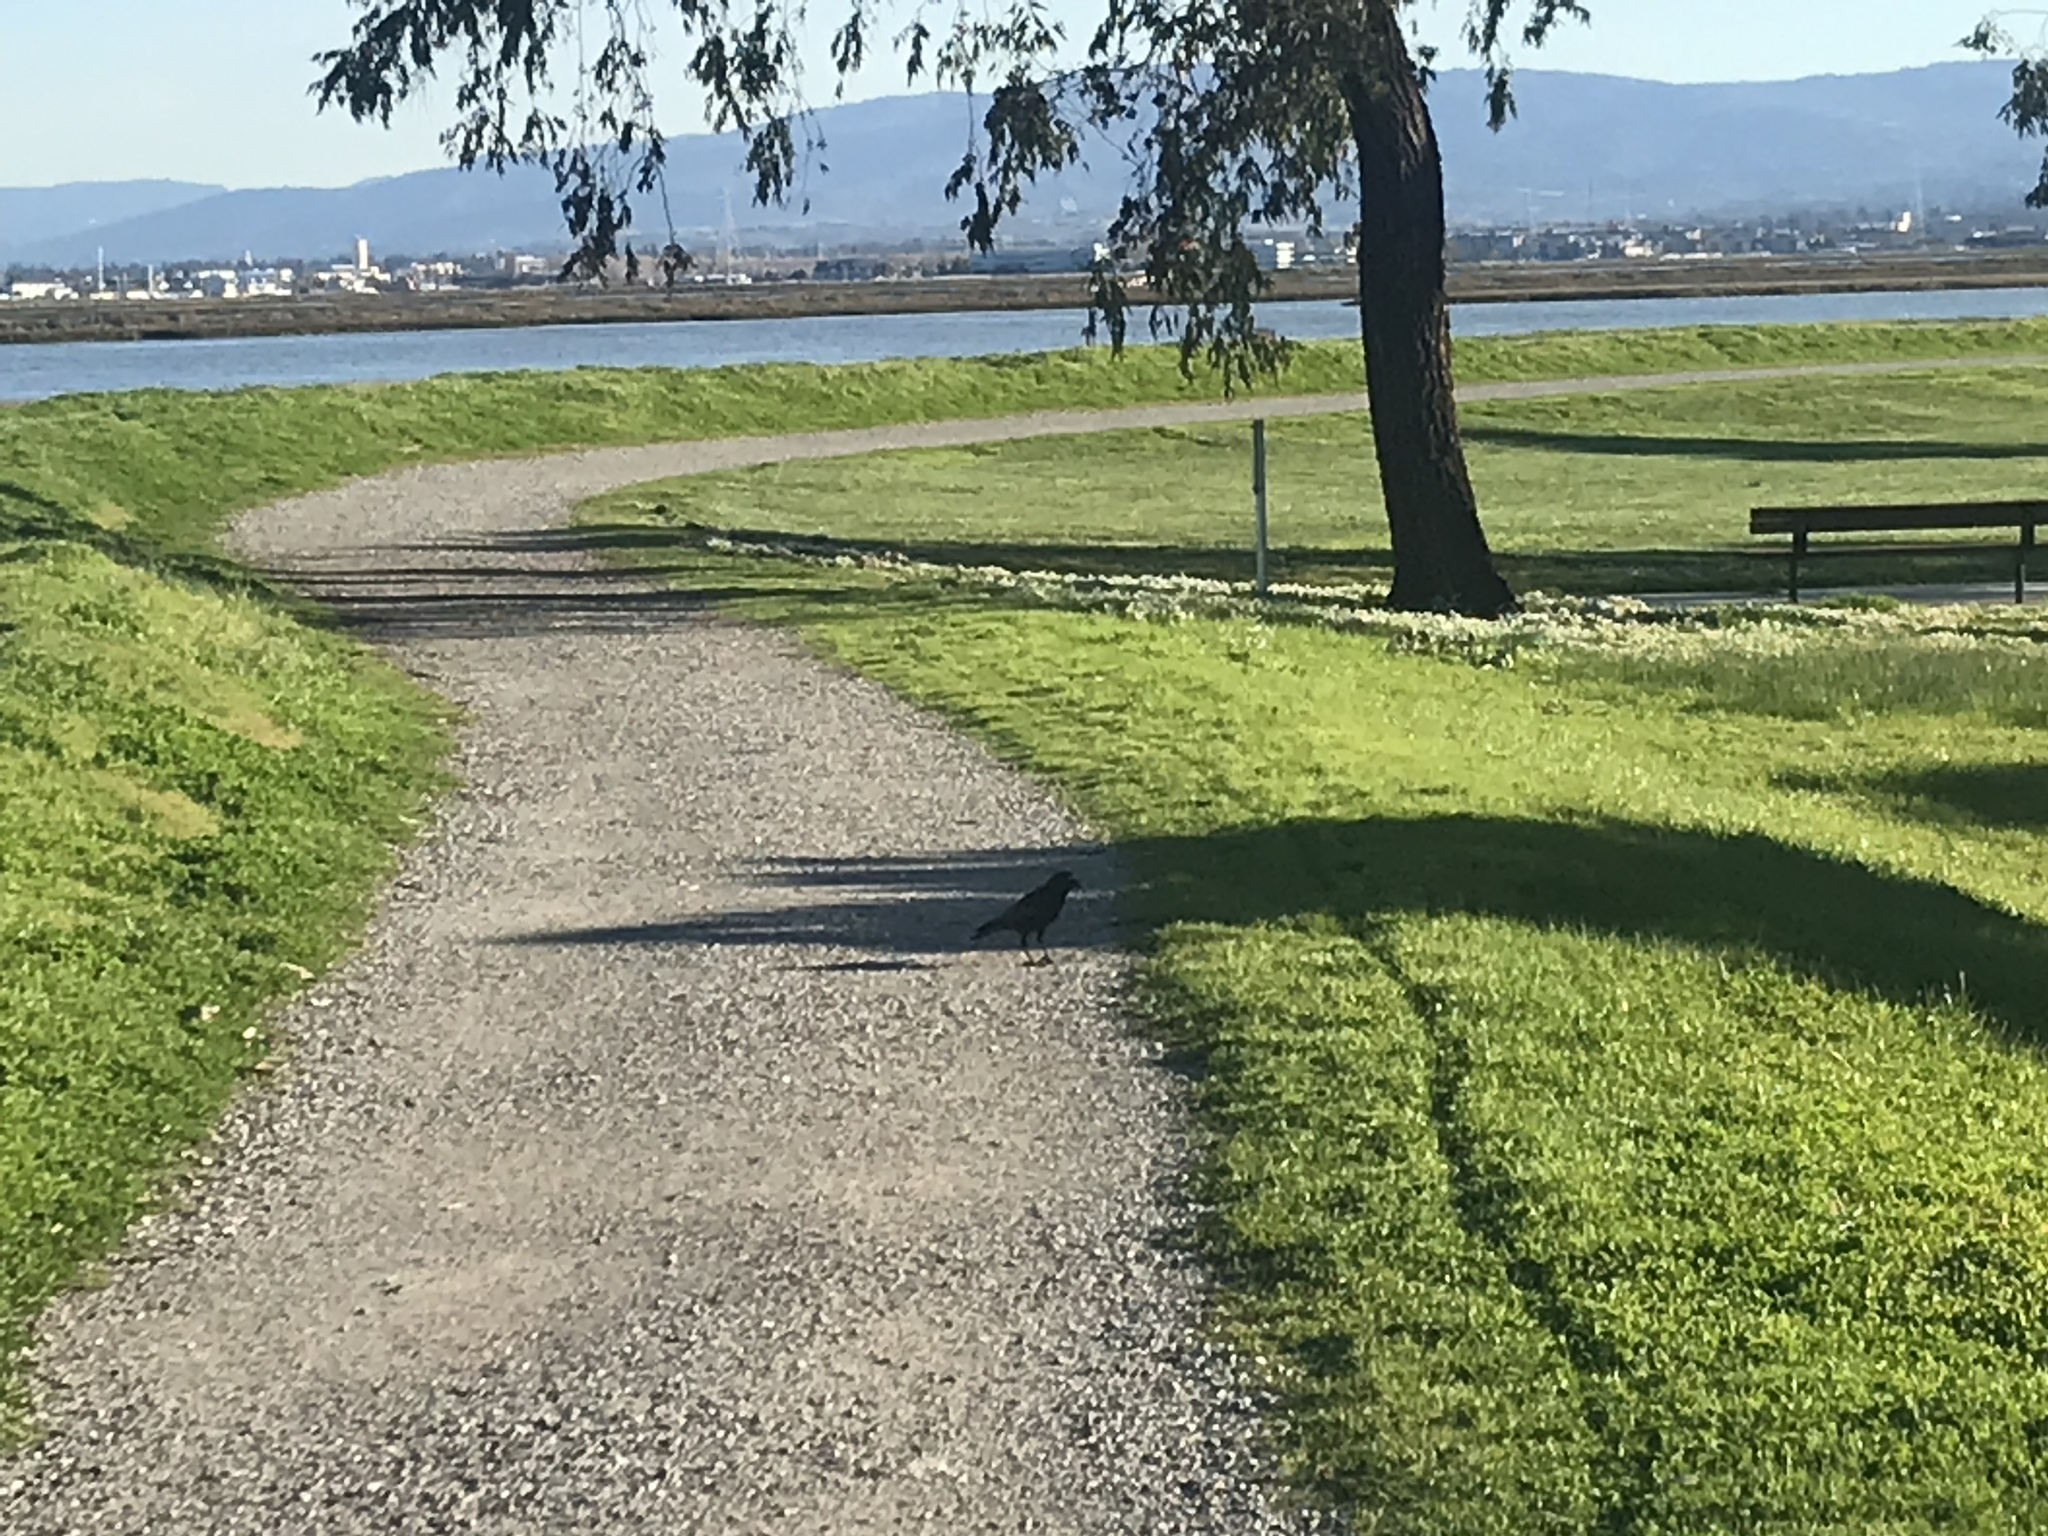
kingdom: Animalia
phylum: Chordata
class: Aves
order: Passeriformes
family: Corvidae
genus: Corvus
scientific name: Corvus brachyrhynchos
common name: American crow
